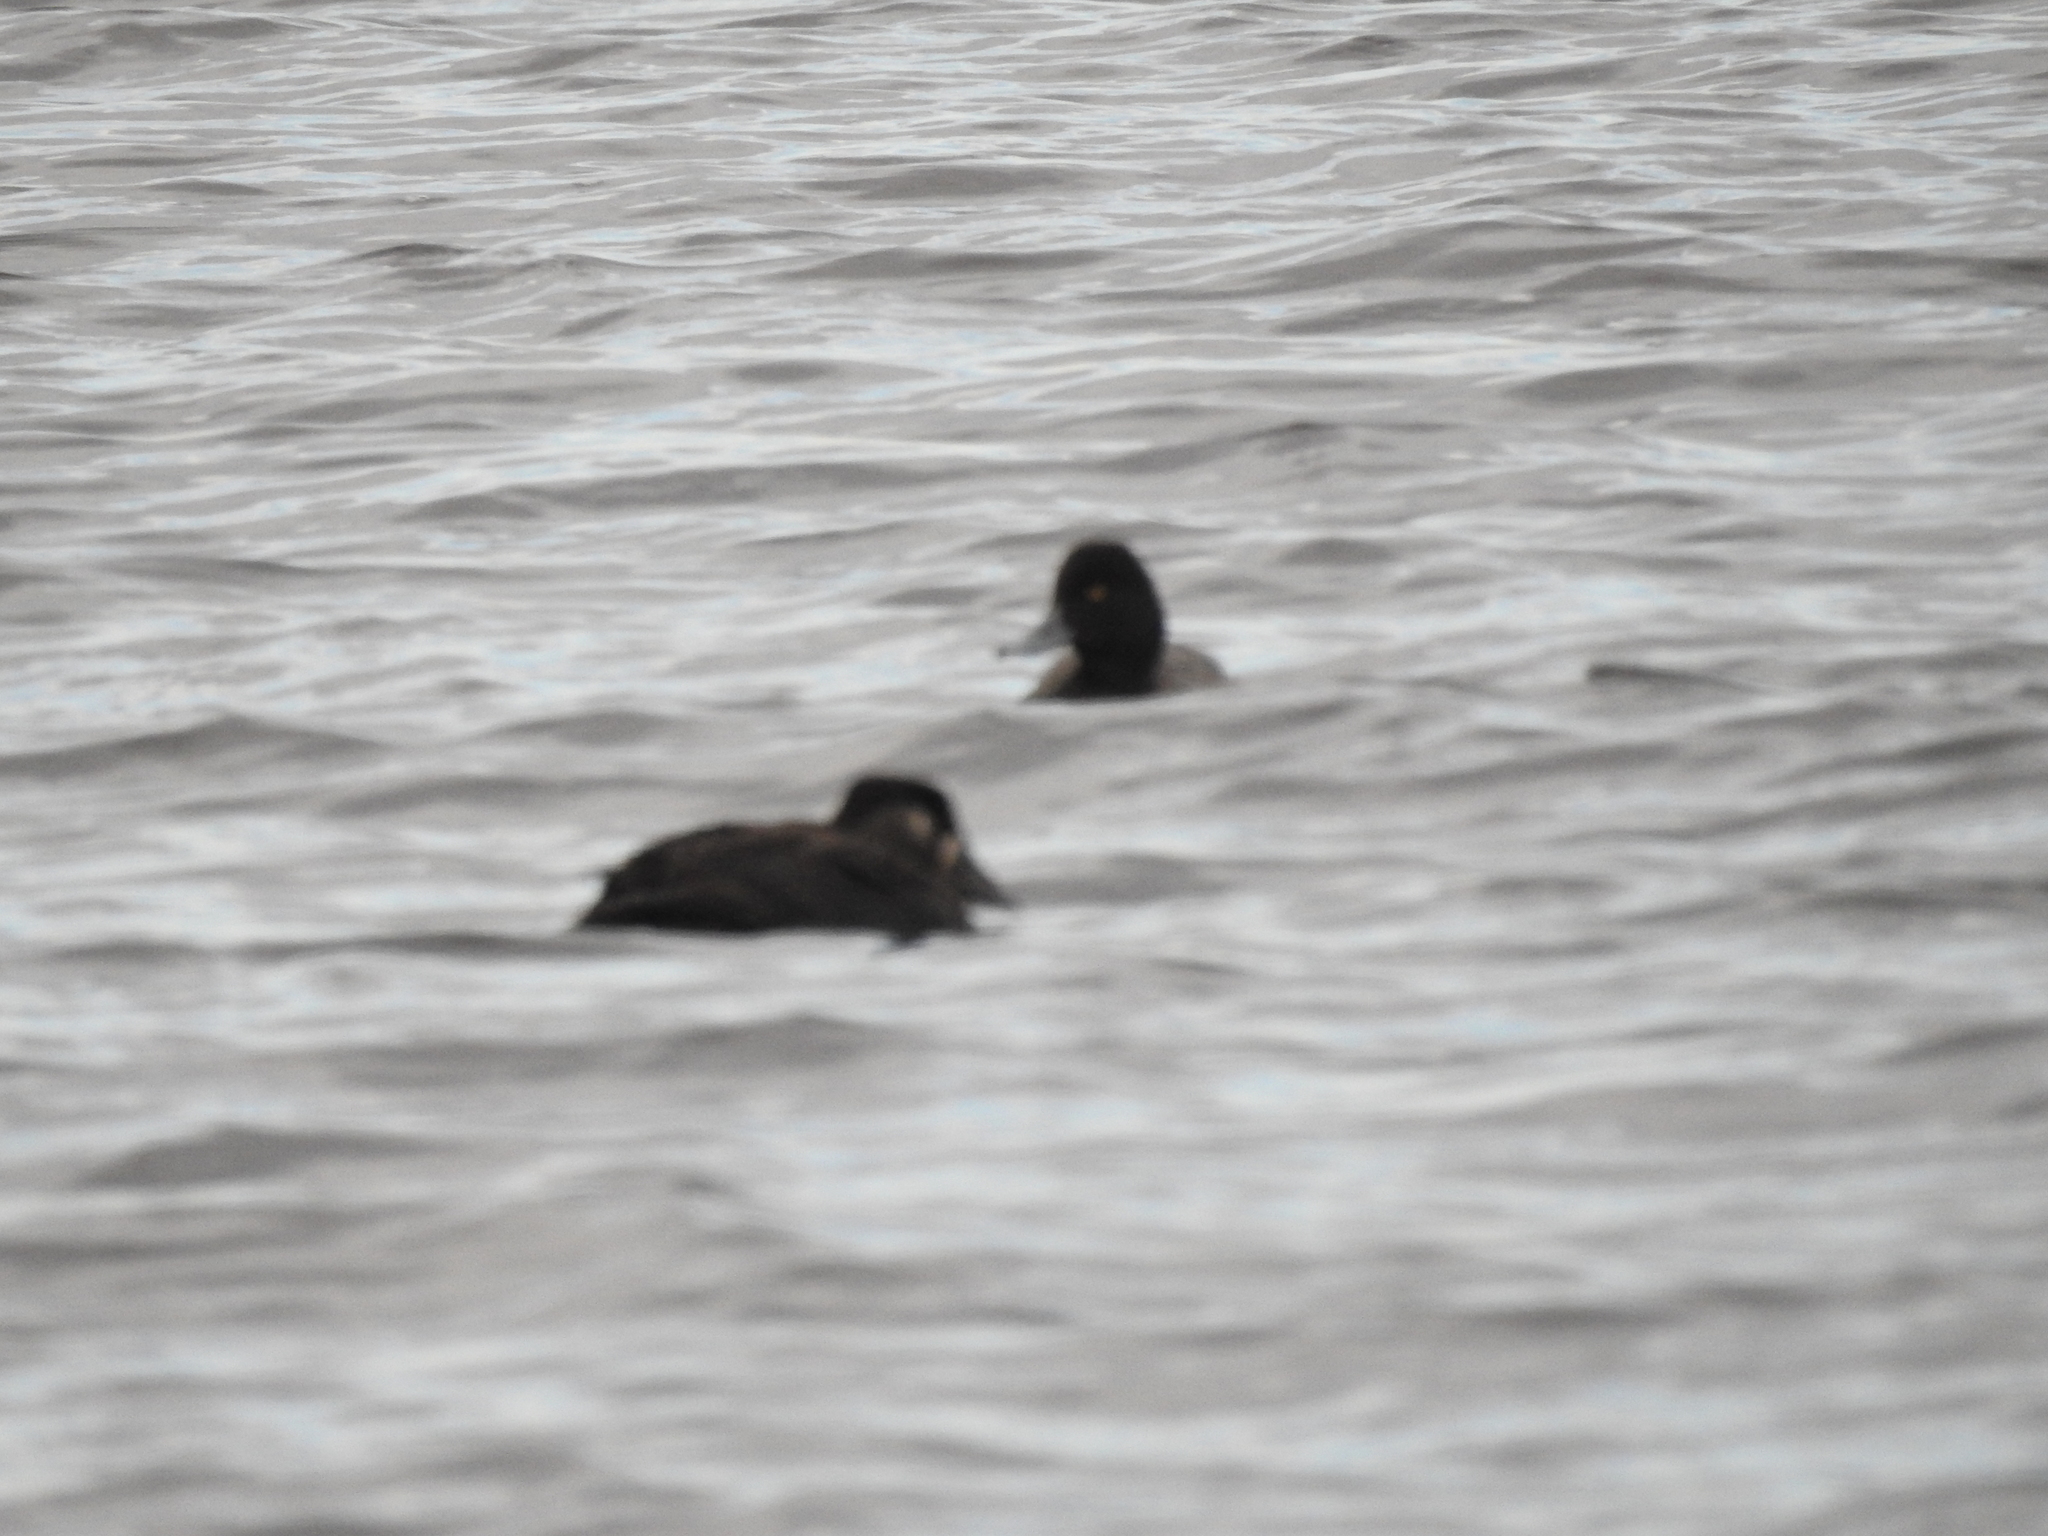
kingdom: Animalia
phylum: Chordata
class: Aves
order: Anseriformes
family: Anatidae
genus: Aythya
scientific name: Aythya affinis
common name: Lesser scaup
